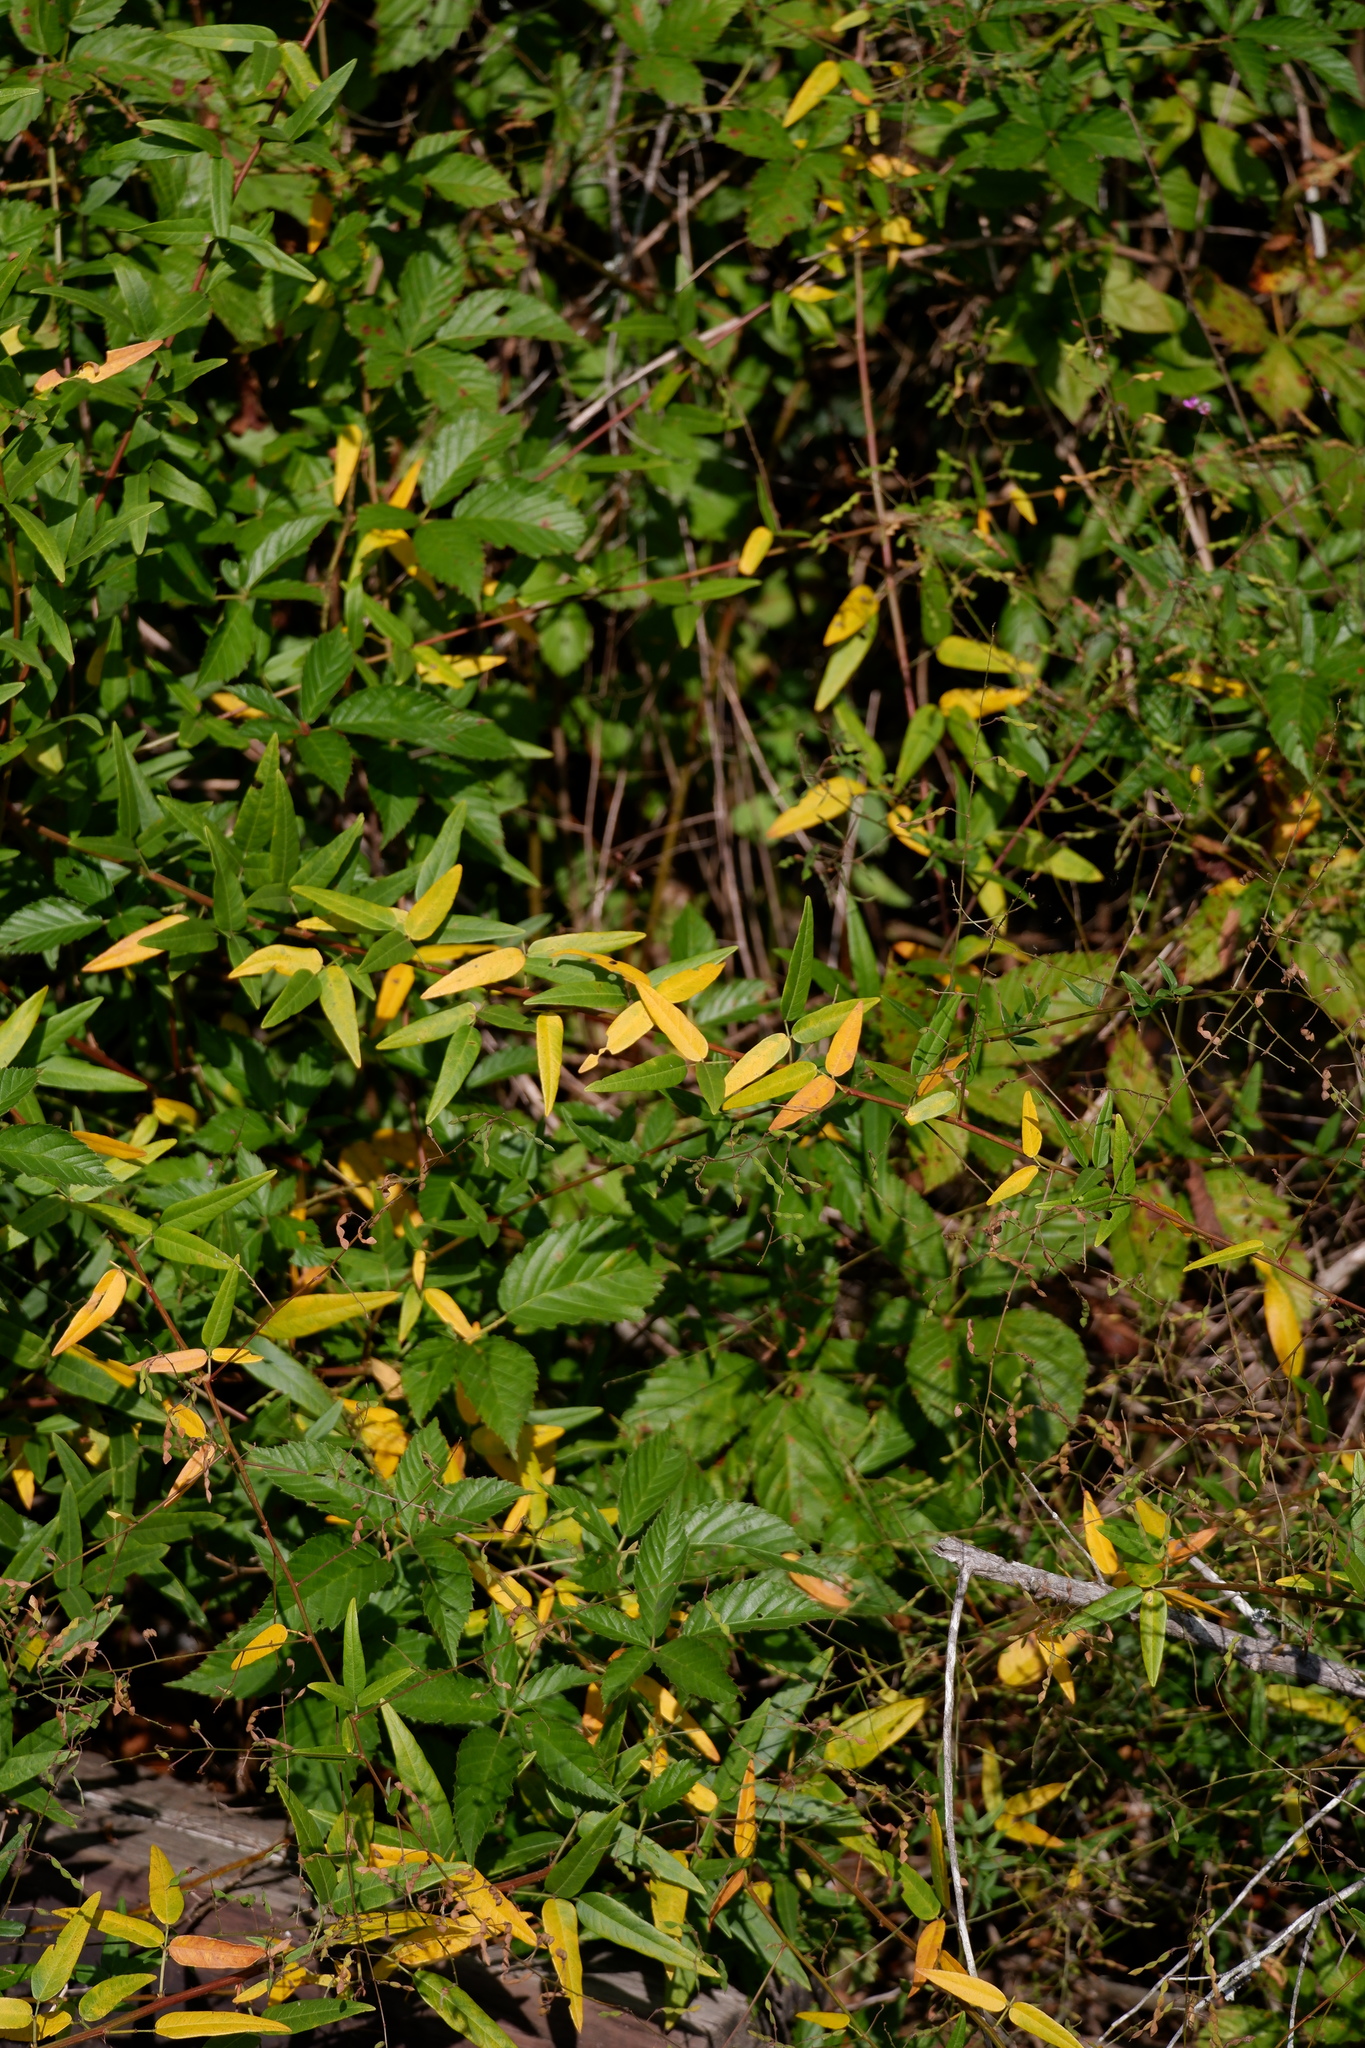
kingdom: Plantae
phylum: Tracheophyta
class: Magnoliopsida
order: Fabales
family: Fabaceae
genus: Desmodium
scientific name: Desmodium paniculatum
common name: Panicled tick-clover
